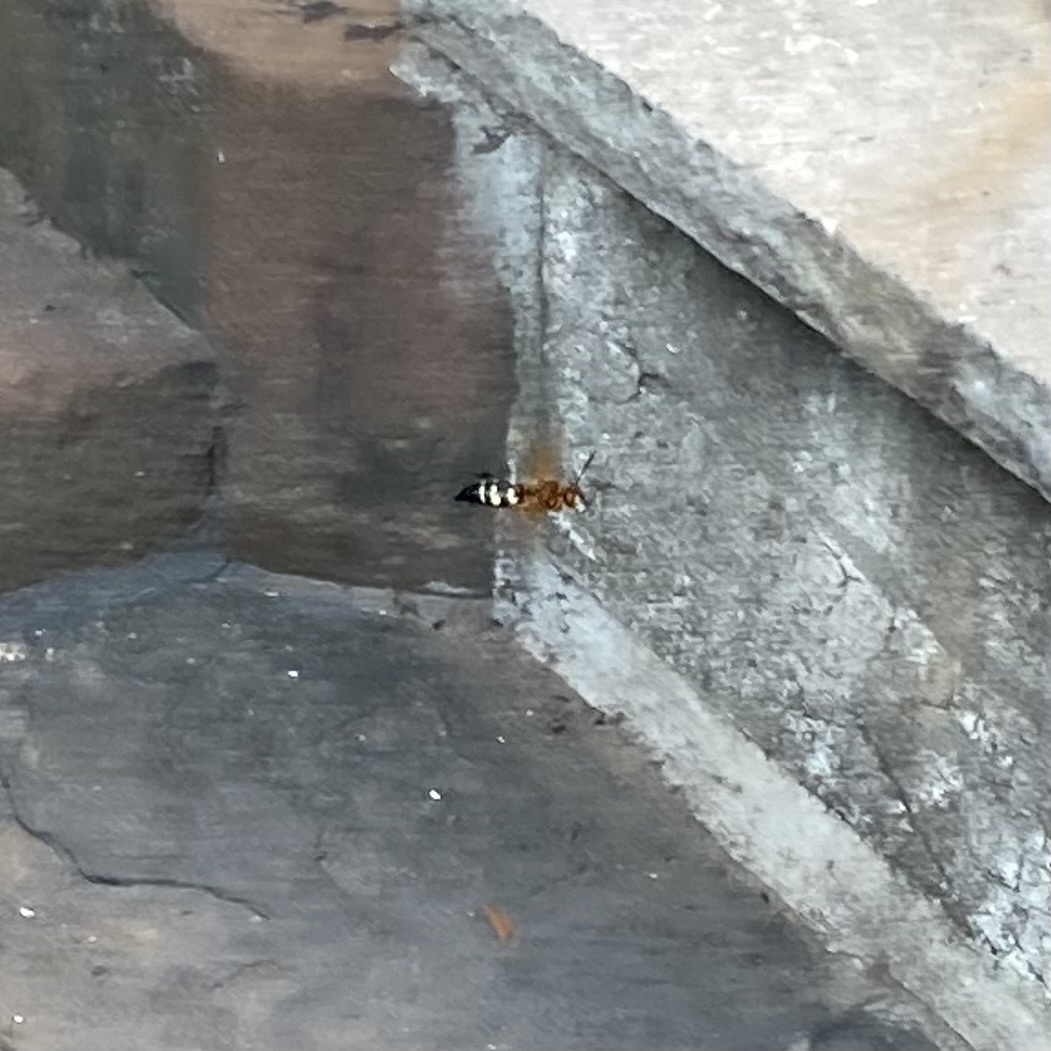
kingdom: Animalia
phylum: Arthropoda
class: Insecta
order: Hymenoptera
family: Crabronidae
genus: Sphecius
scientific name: Sphecius speciosus
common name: Cicada killer
